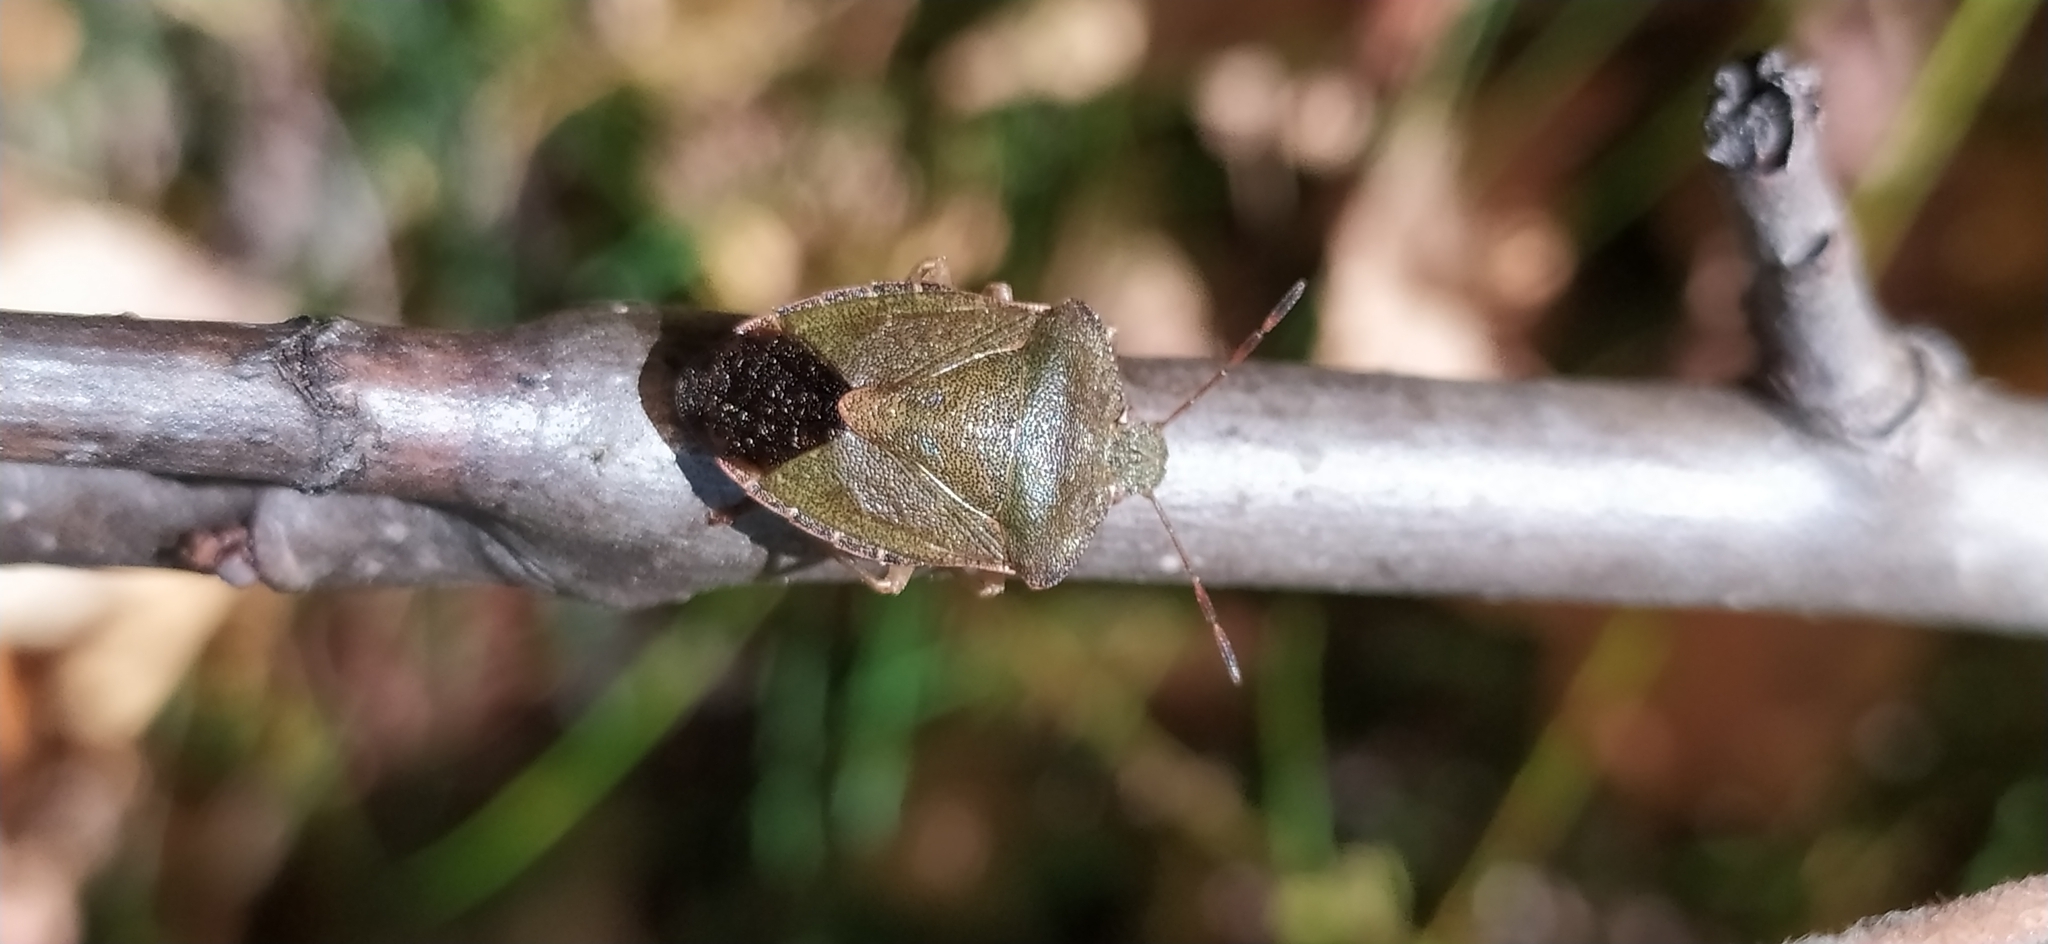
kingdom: Animalia
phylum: Arthropoda
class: Insecta
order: Hemiptera
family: Pentatomidae
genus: Palomena
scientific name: Palomena prasina
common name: Green shieldbug
